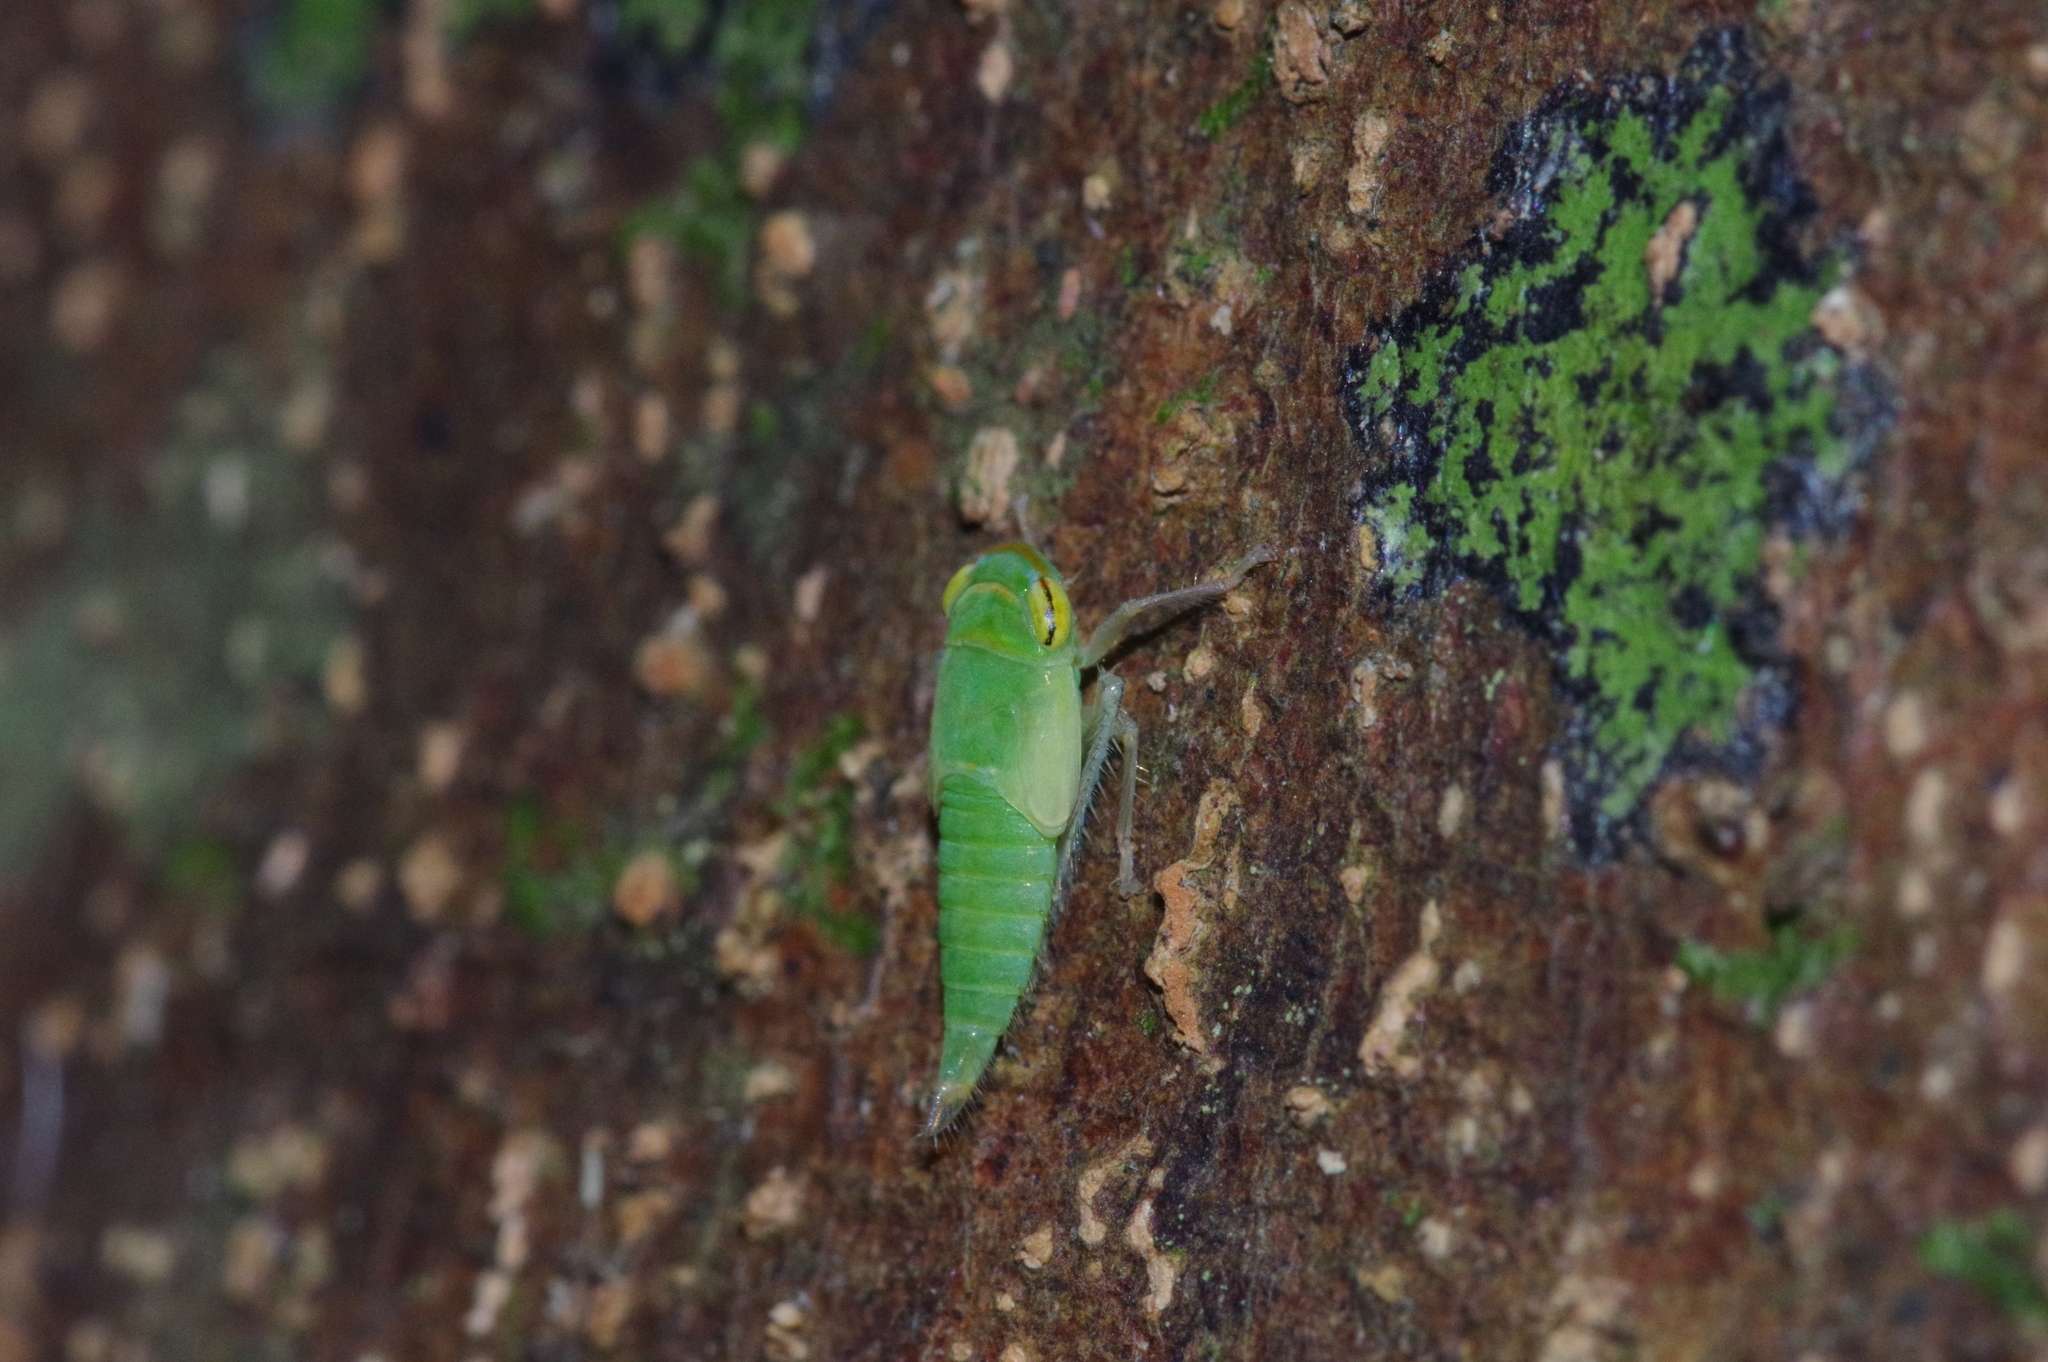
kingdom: Animalia
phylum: Arthropoda
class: Insecta
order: Hemiptera
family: Cicadellidae
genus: Tartessus
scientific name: Tartessus ferrugineus
